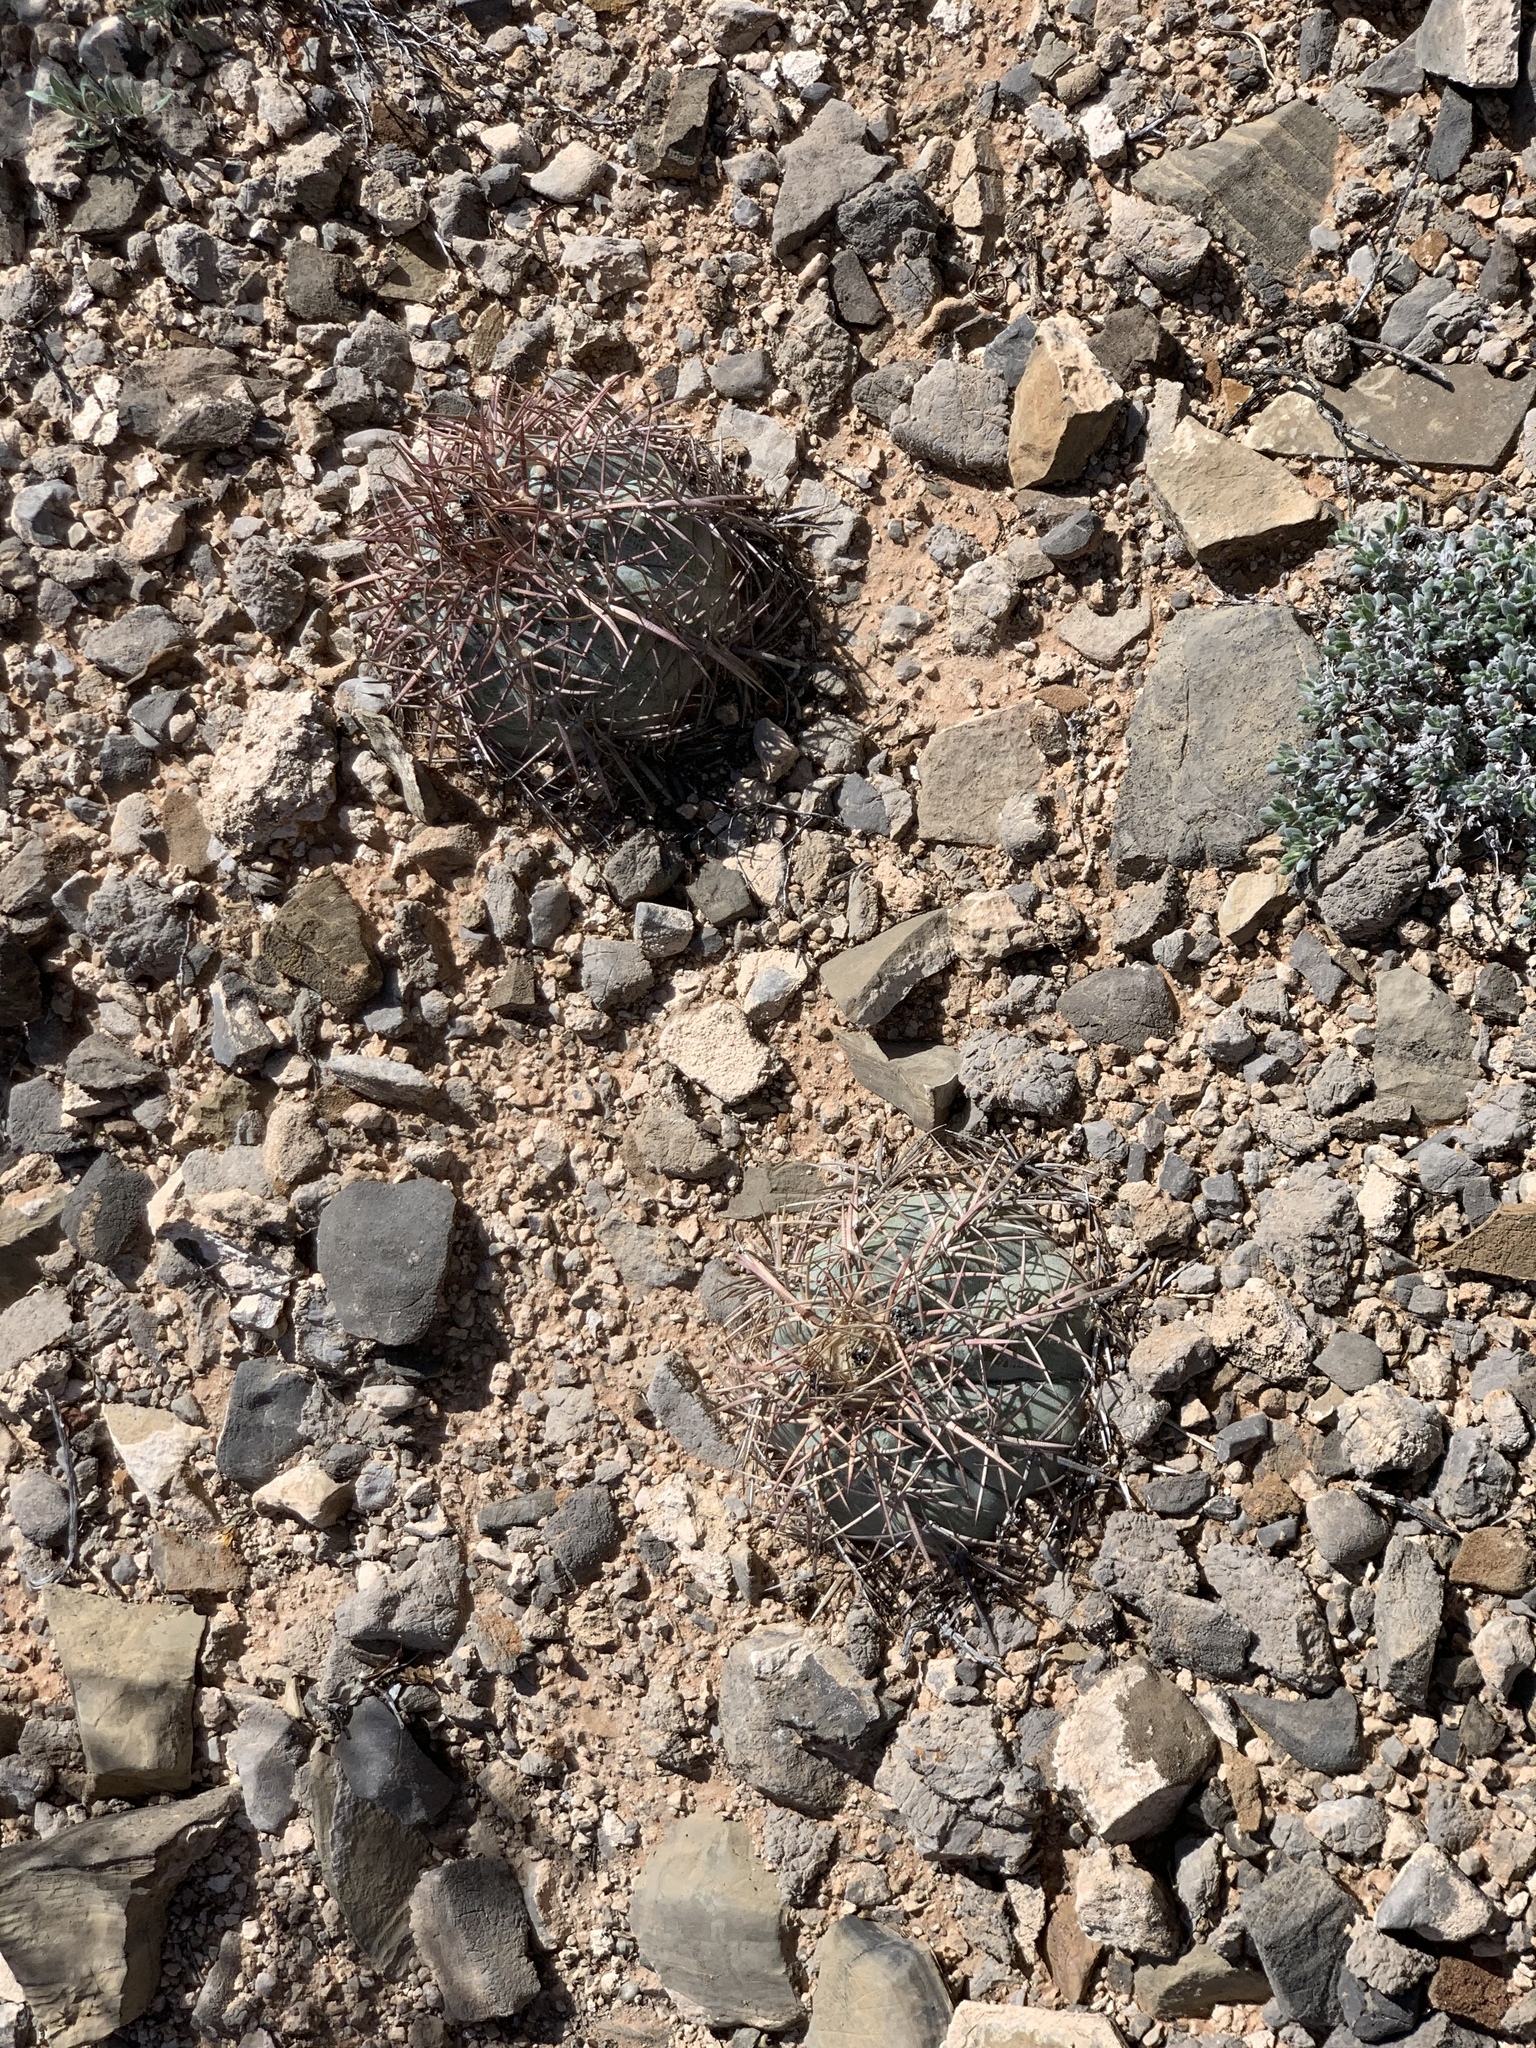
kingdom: Plantae
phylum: Tracheophyta
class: Magnoliopsida
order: Caryophyllales
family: Cactaceae
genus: Echinocactus
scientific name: Echinocactus horizonthalonius
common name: Devilshead
